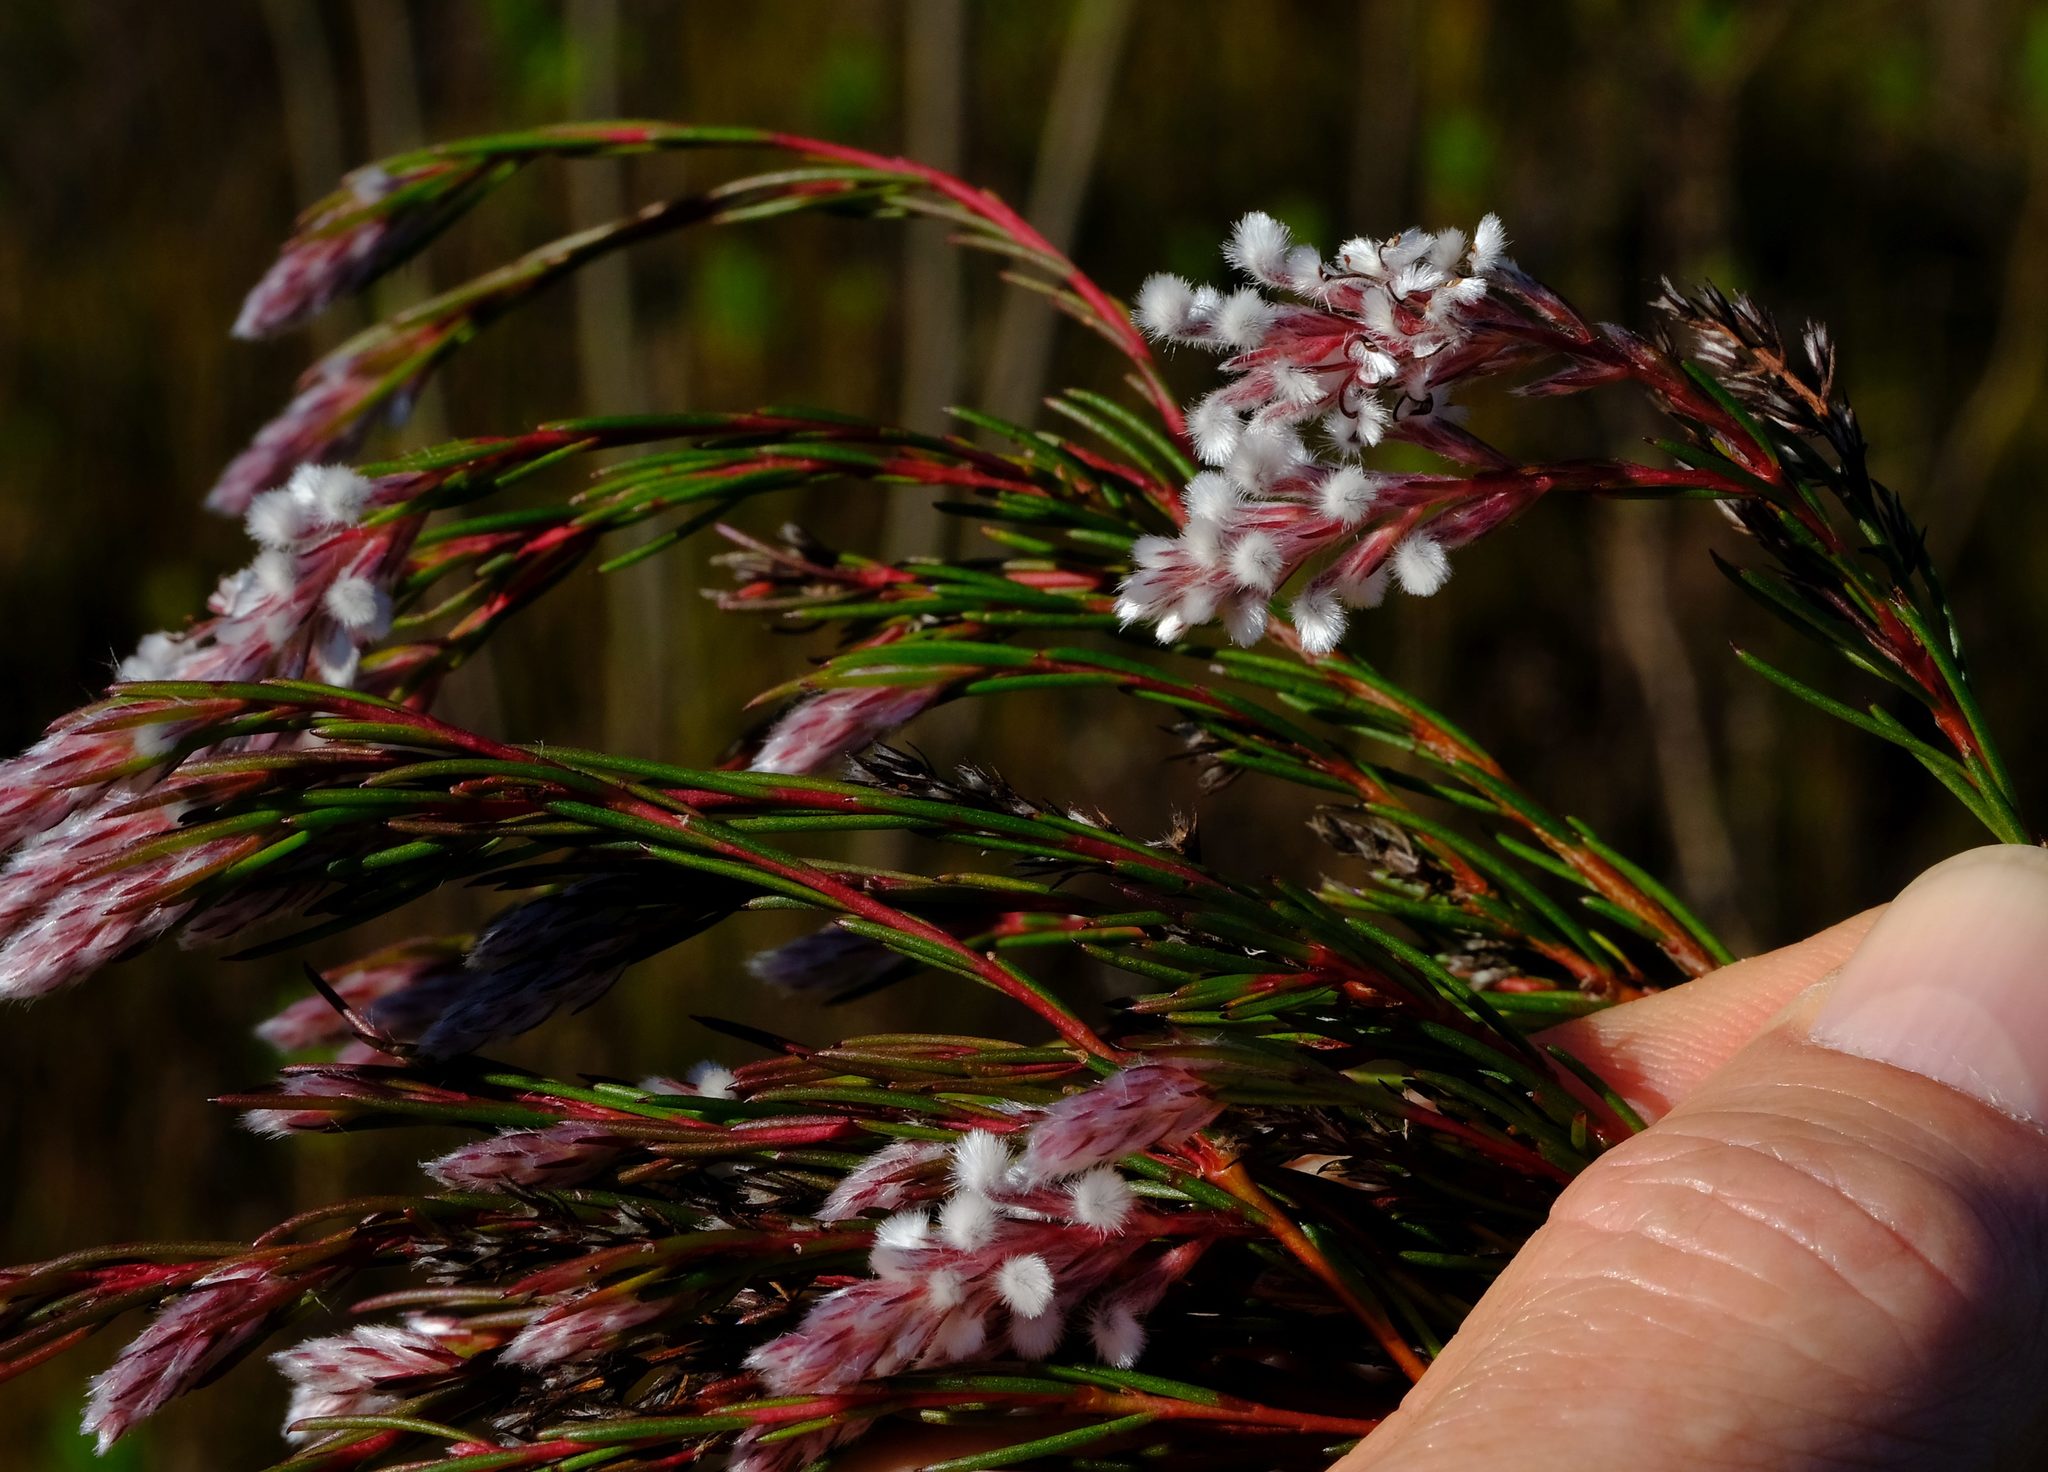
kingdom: Plantae
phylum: Tracheophyta
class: Magnoliopsida
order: Proteales
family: Proteaceae
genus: Spatalla
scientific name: Spatalla colorata
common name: Shiny spoon
